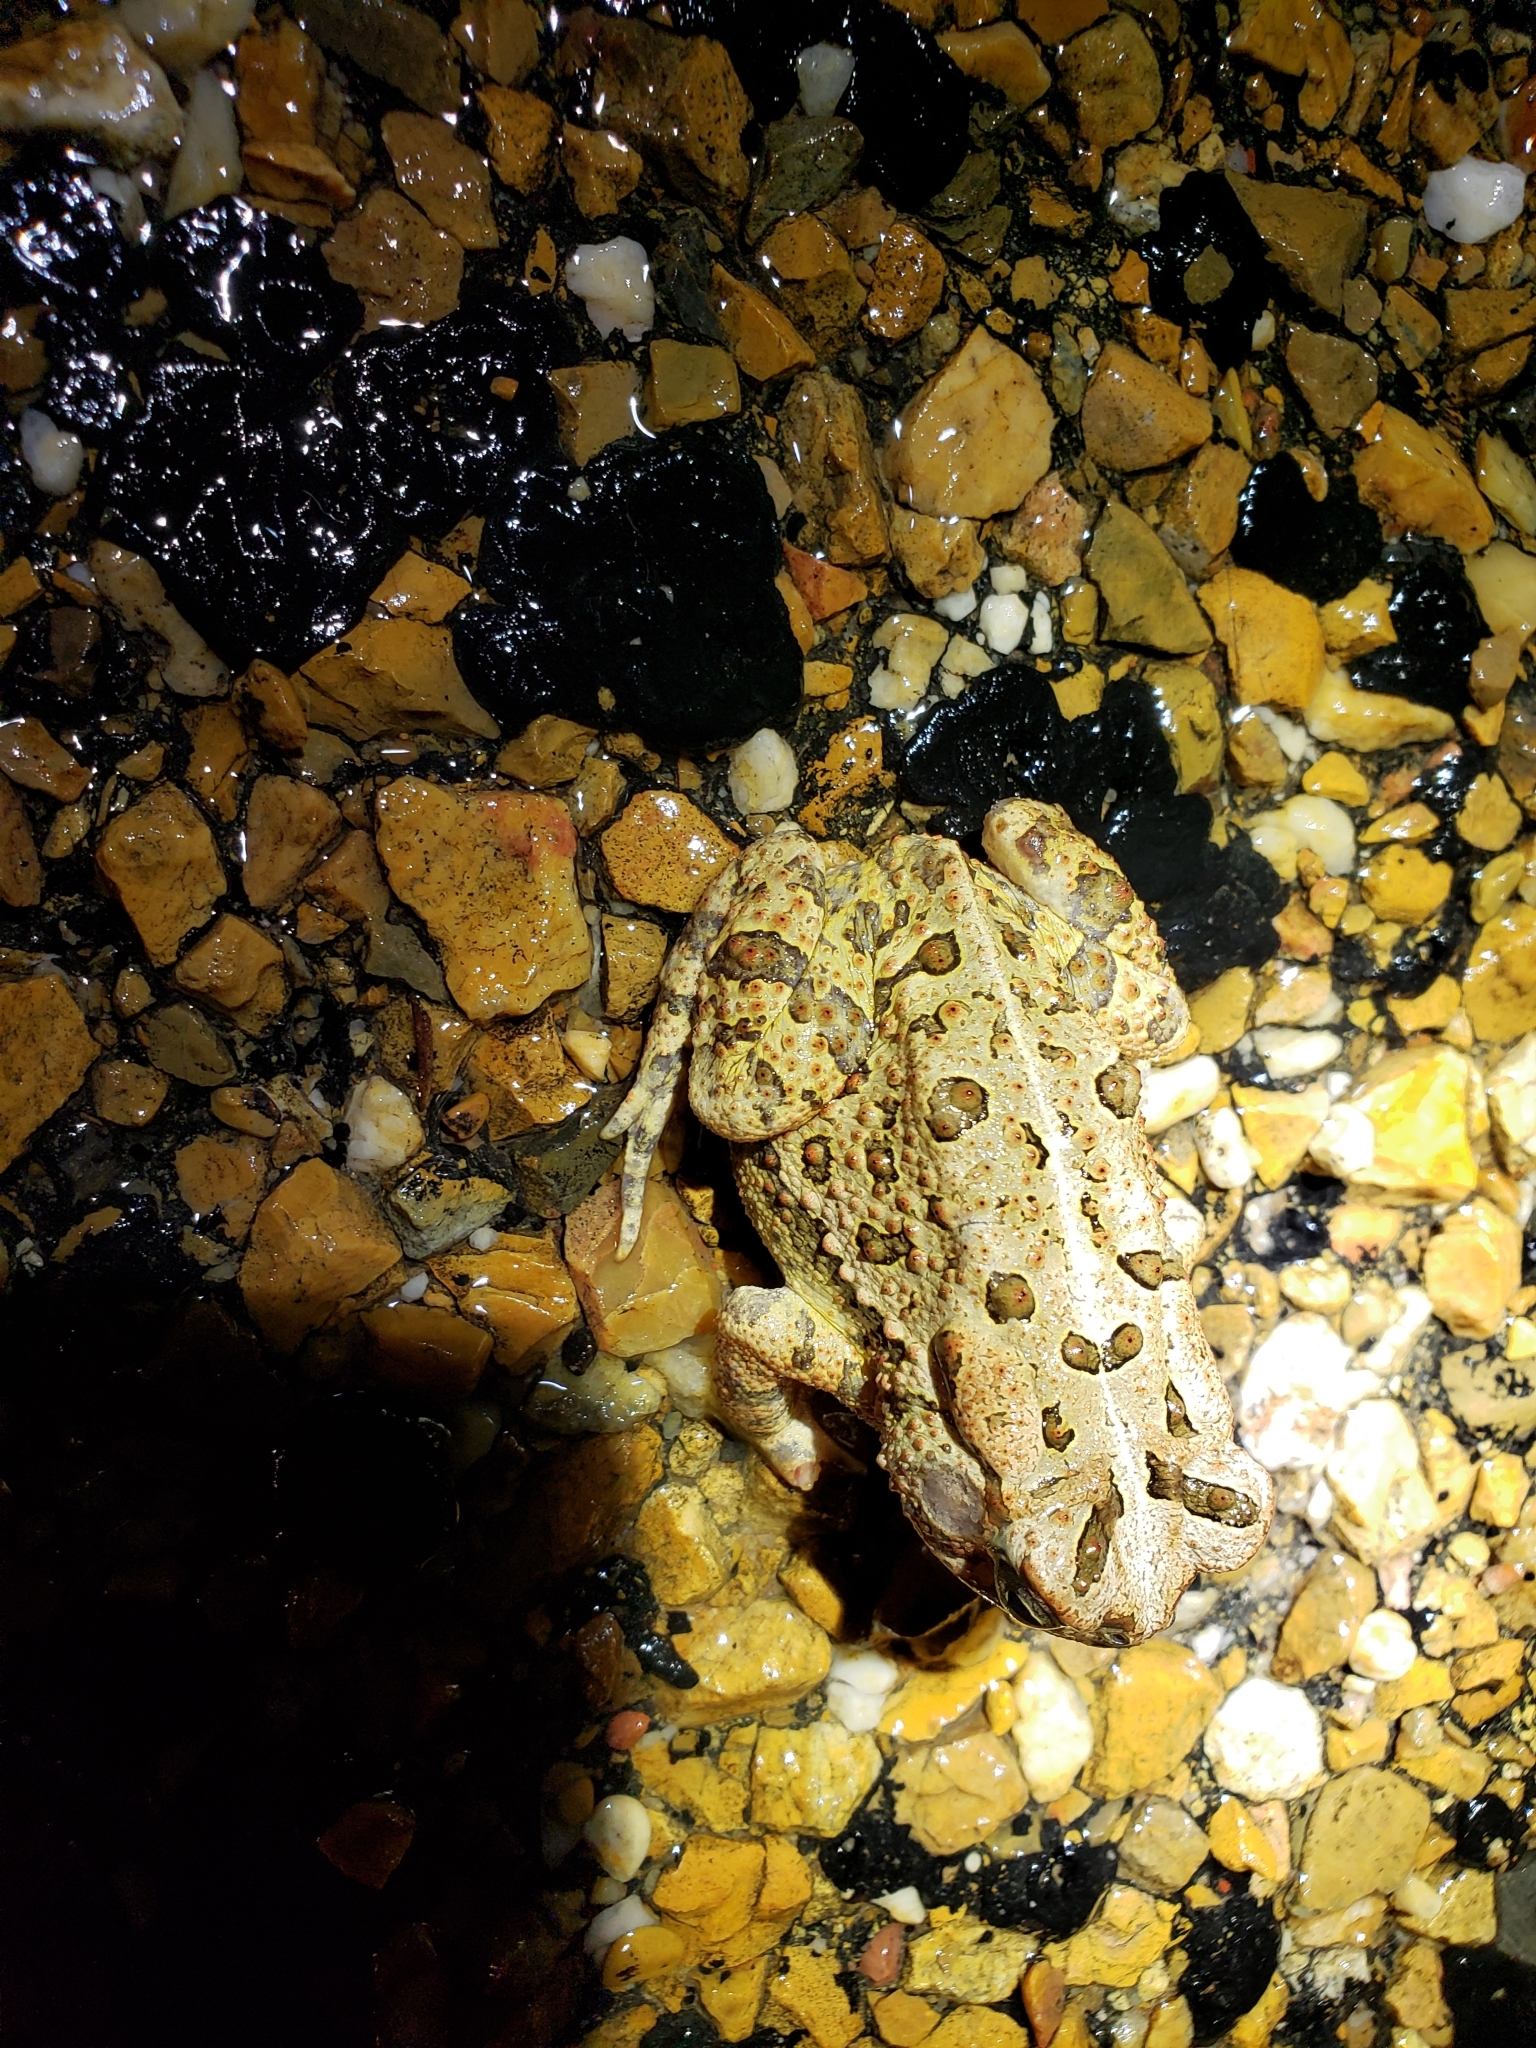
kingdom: Animalia
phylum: Chordata
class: Amphibia
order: Anura
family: Bufonidae
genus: Anaxyrus
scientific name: Anaxyrus fowleri
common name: Fowler's toad
